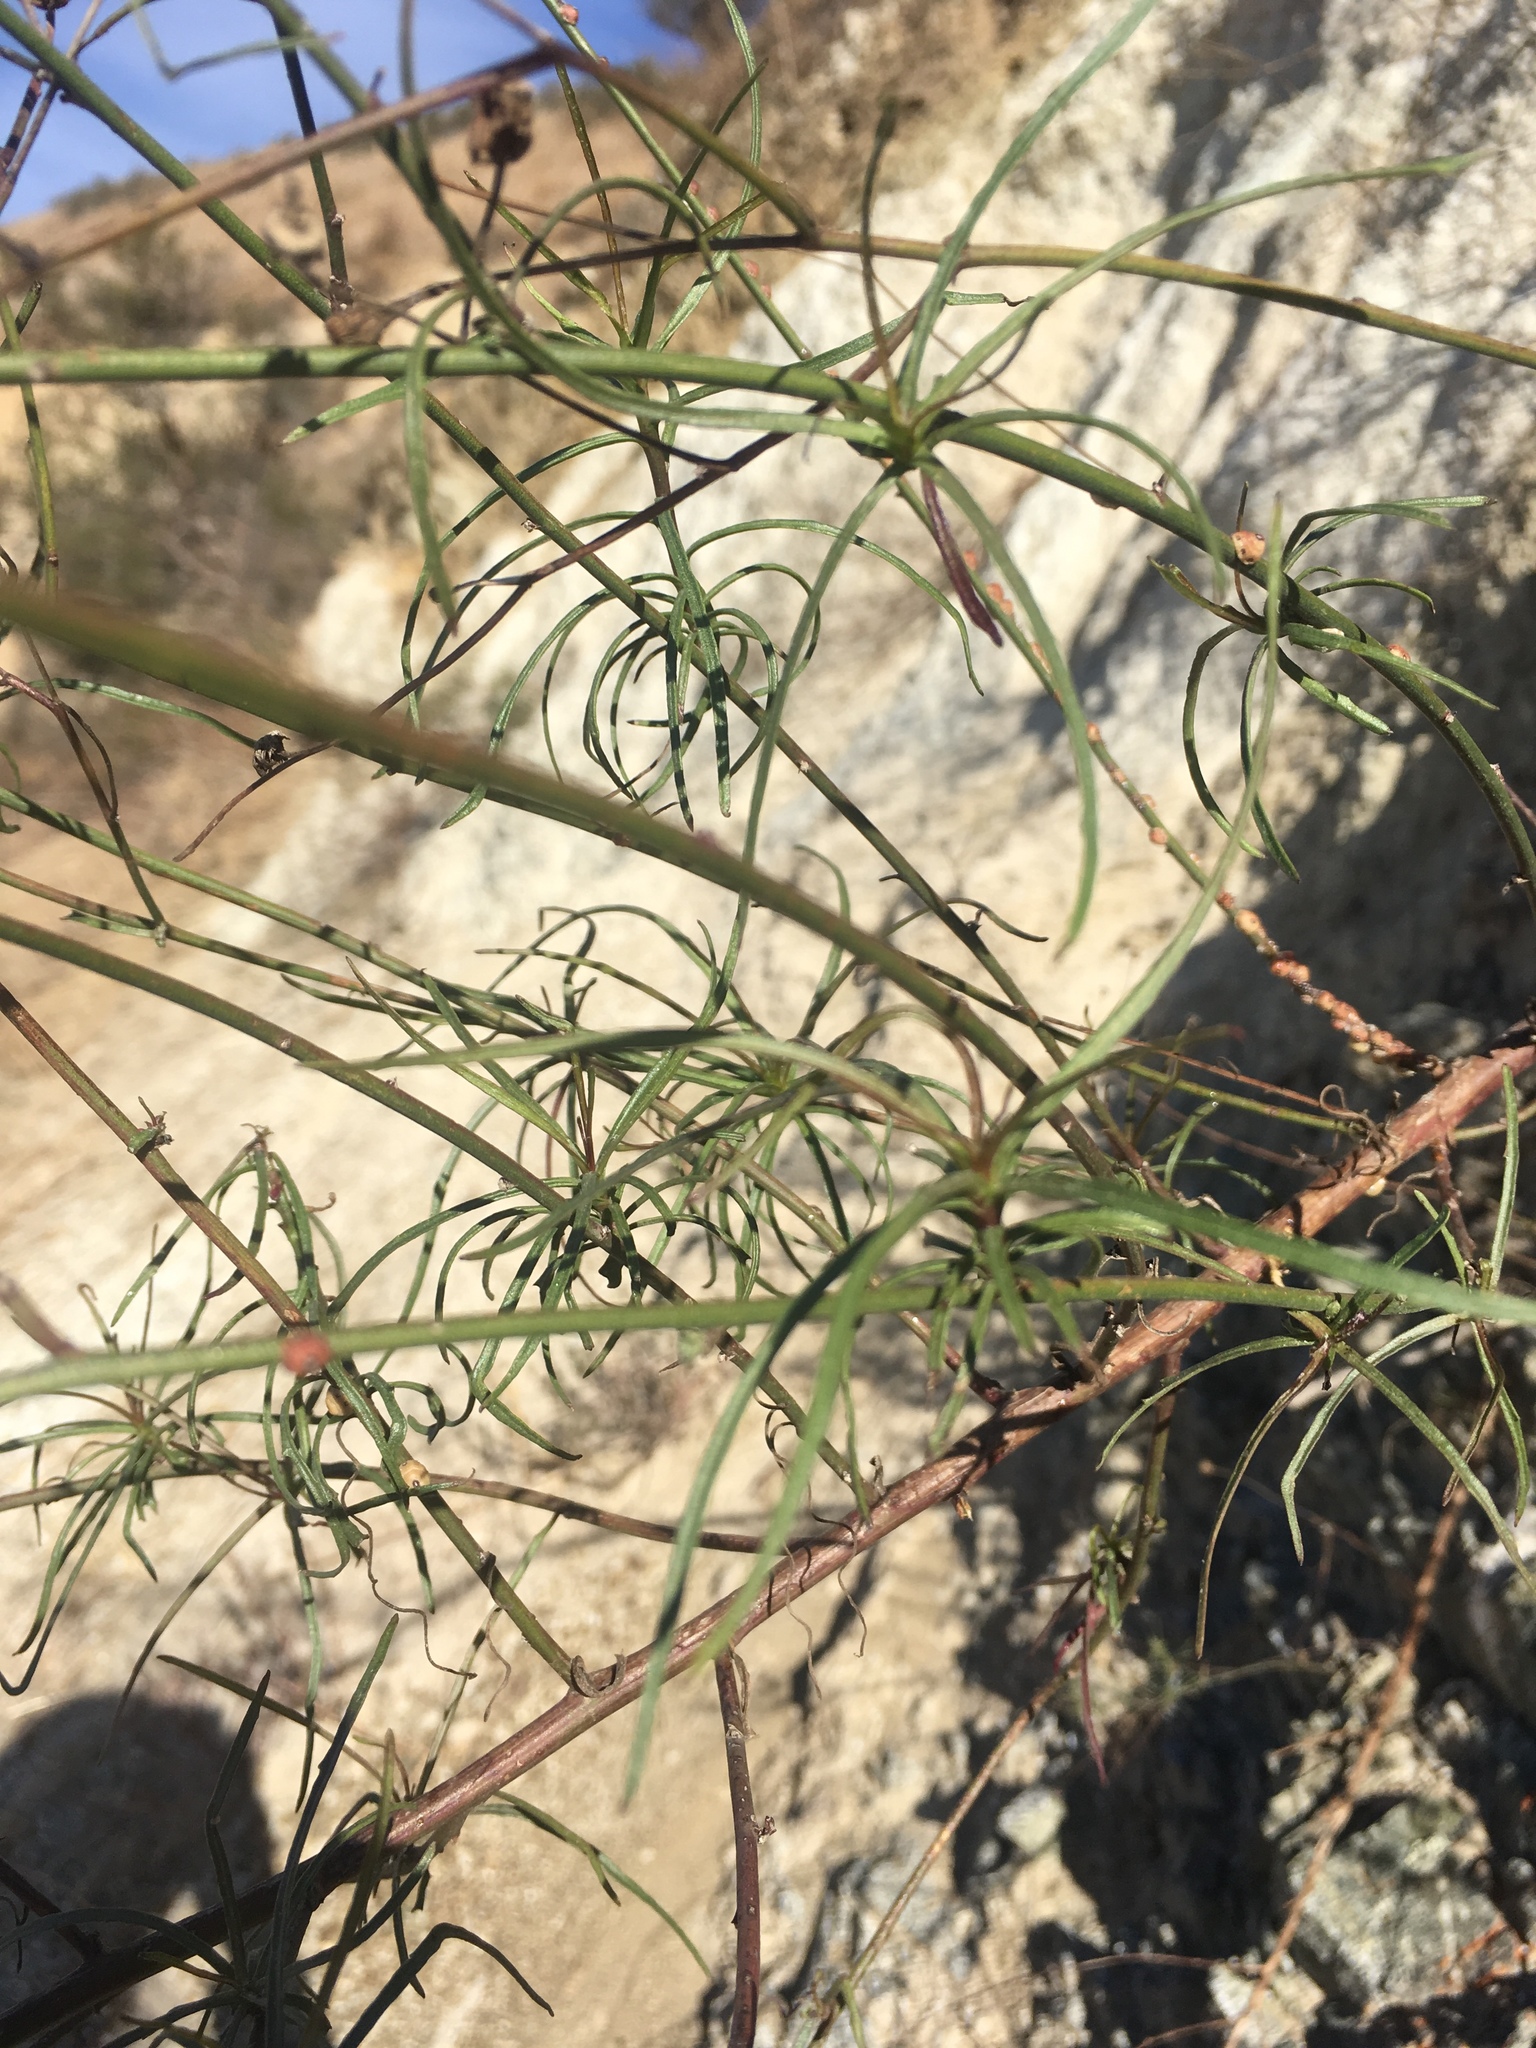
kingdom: Plantae
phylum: Tracheophyta
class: Magnoliopsida
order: Asterales
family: Asteraceae
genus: Malacothrix
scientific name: Malacothrix saxatilis
